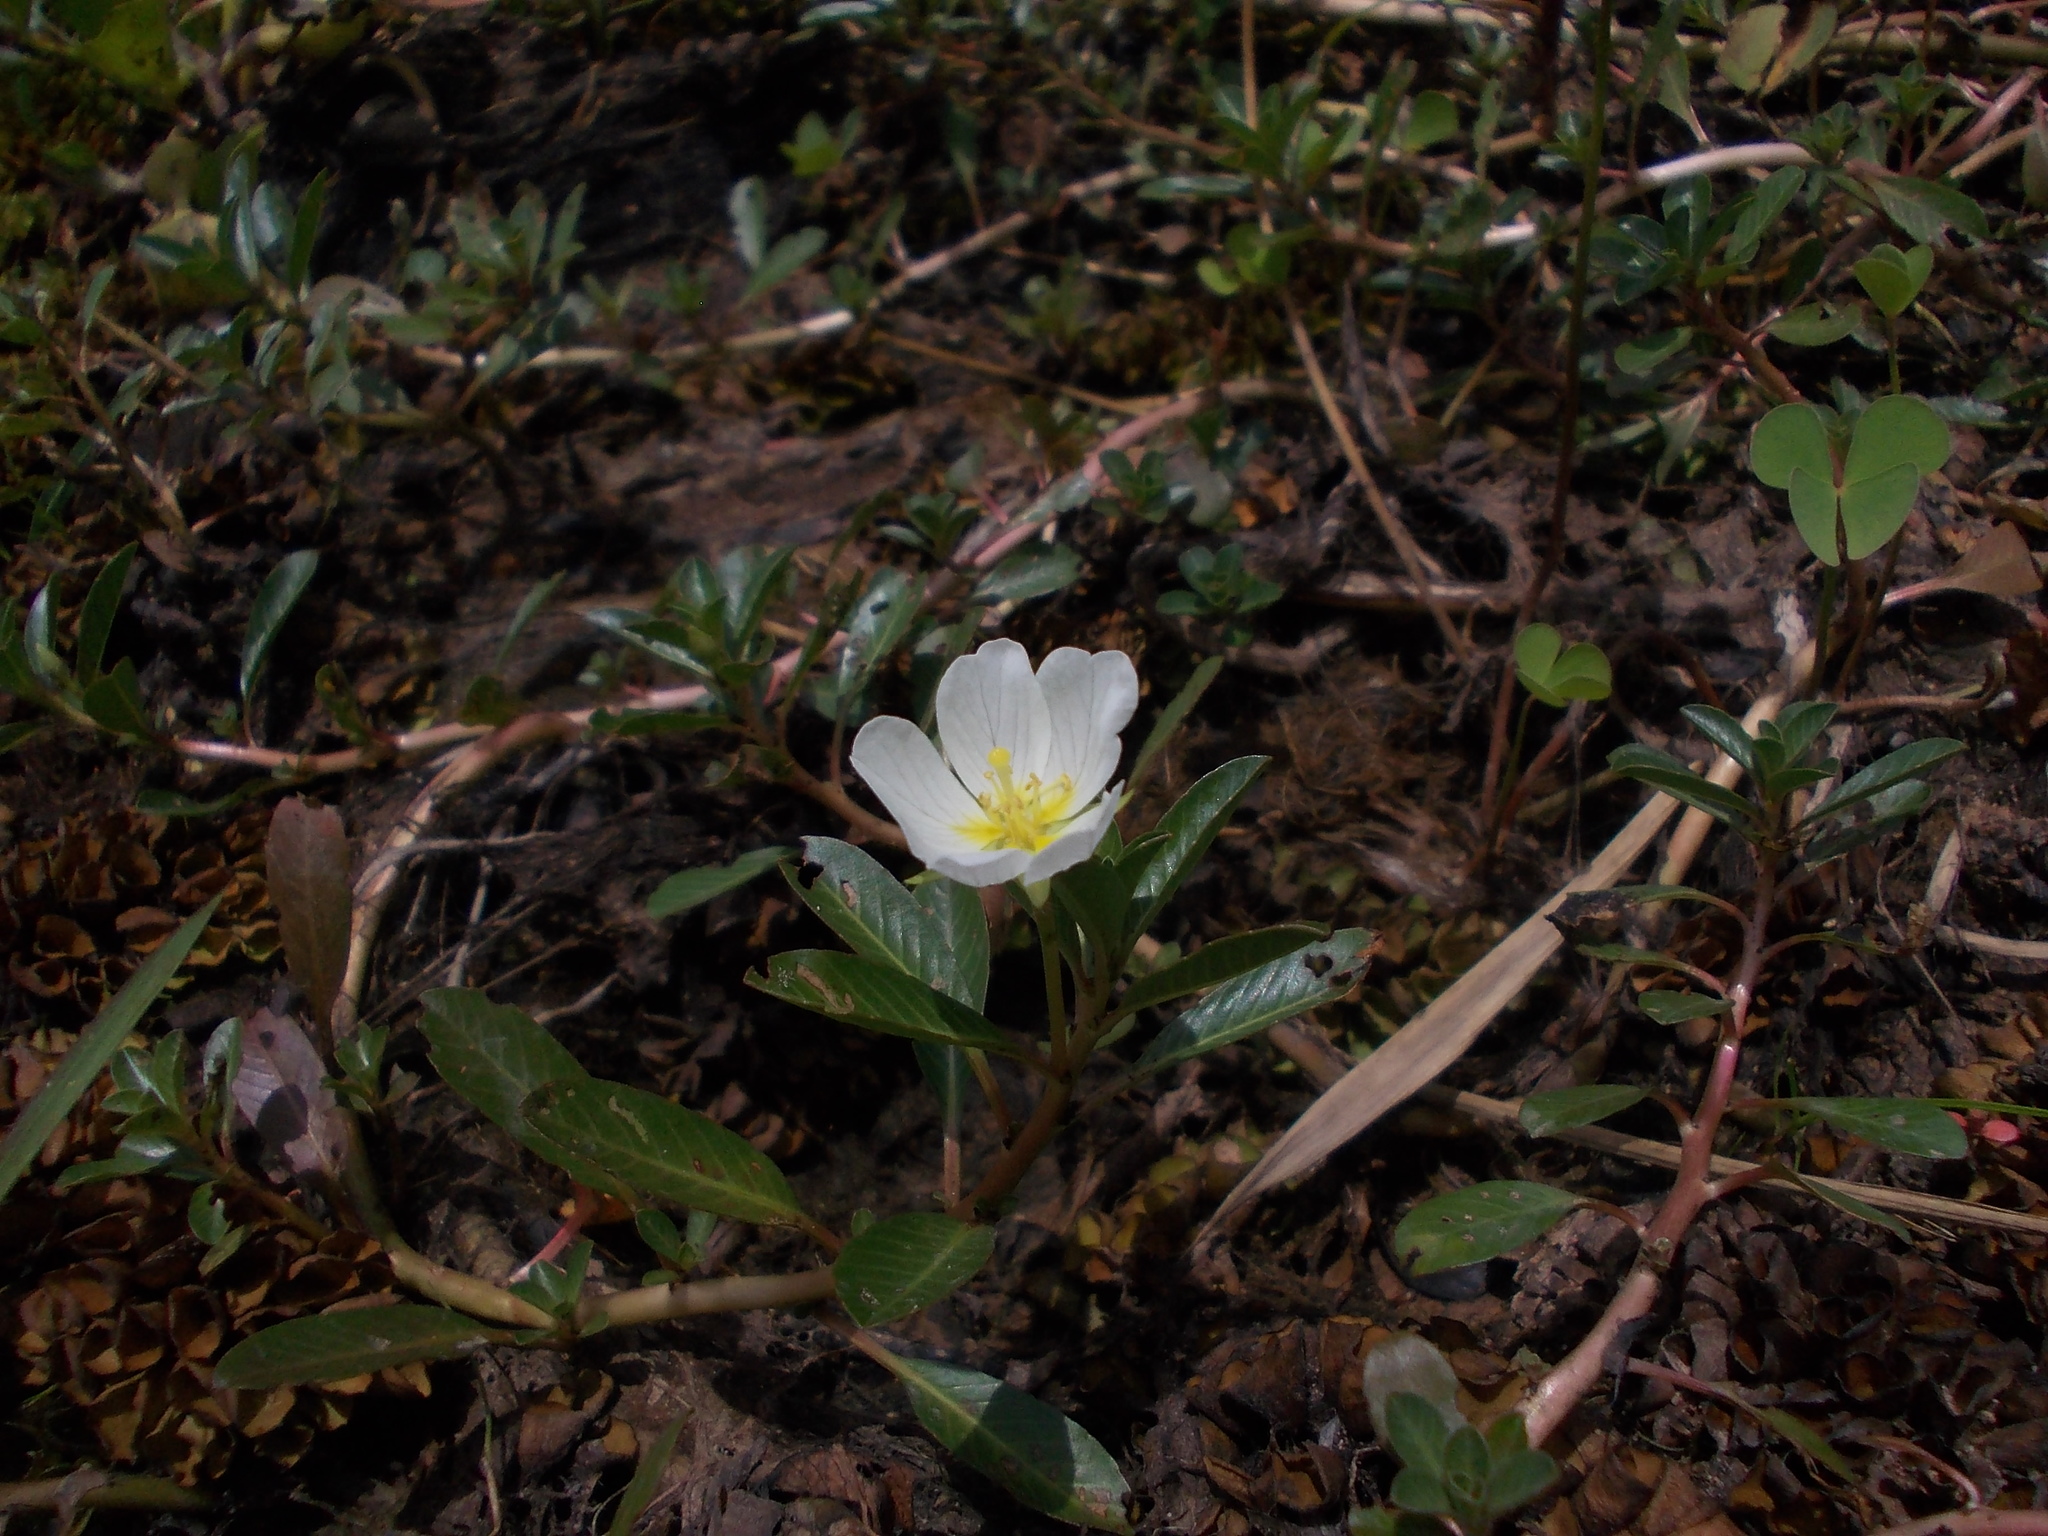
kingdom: Plantae
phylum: Tracheophyta
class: Magnoliopsida
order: Myrtales
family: Onagraceae
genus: Ludwigia
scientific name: Ludwigia adscendens
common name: Creeping water primrose
